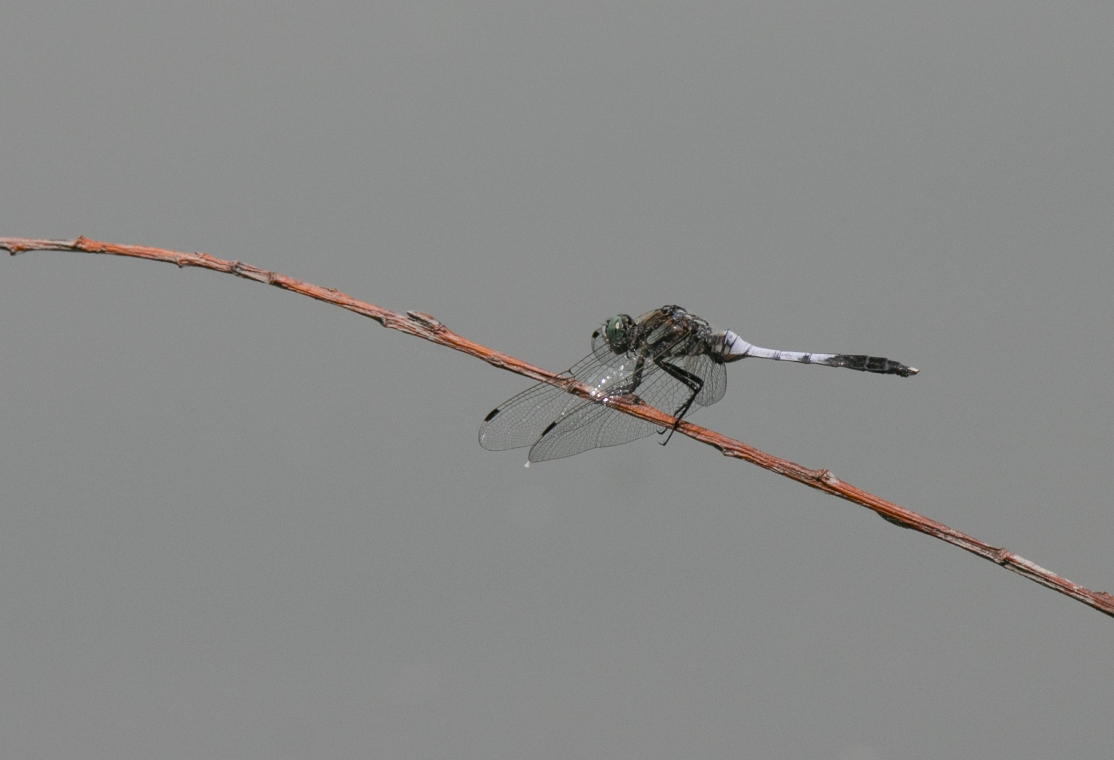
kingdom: Animalia
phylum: Arthropoda
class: Insecta
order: Odonata
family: Libellulidae
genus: Orthetrum
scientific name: Orthetrum albistylum
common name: White-tailed skimmer
